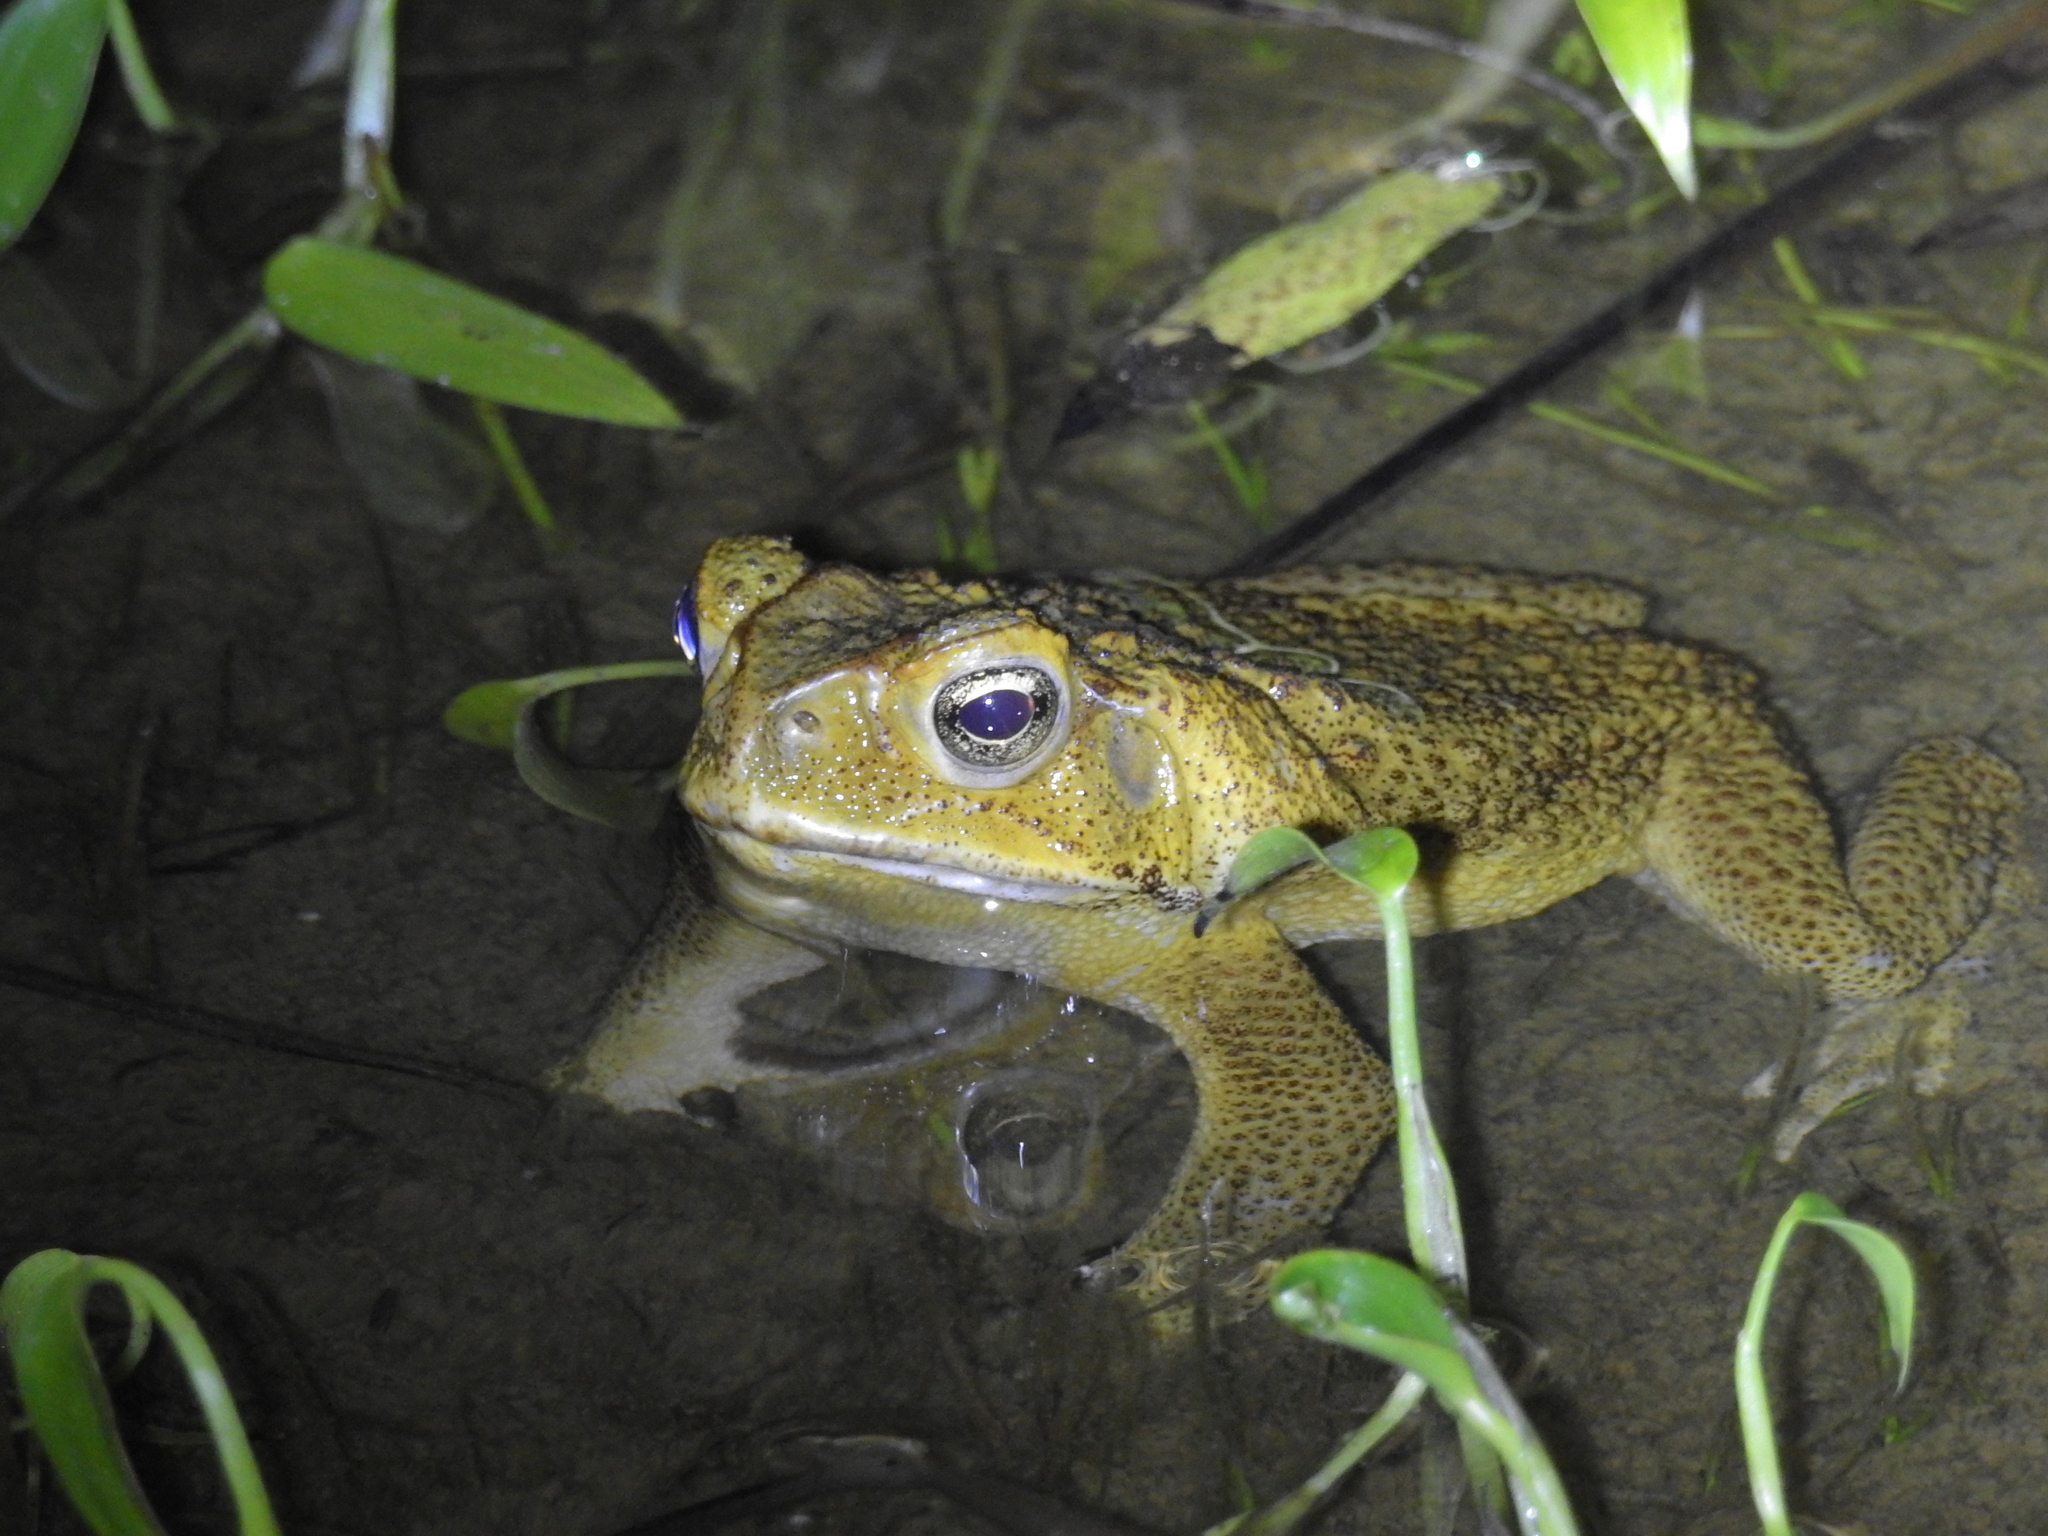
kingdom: Animalia
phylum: Chordata
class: Amphibia
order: Anura
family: Bufonidae
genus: Rhinella
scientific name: Rhinella marina
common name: Cane toad
